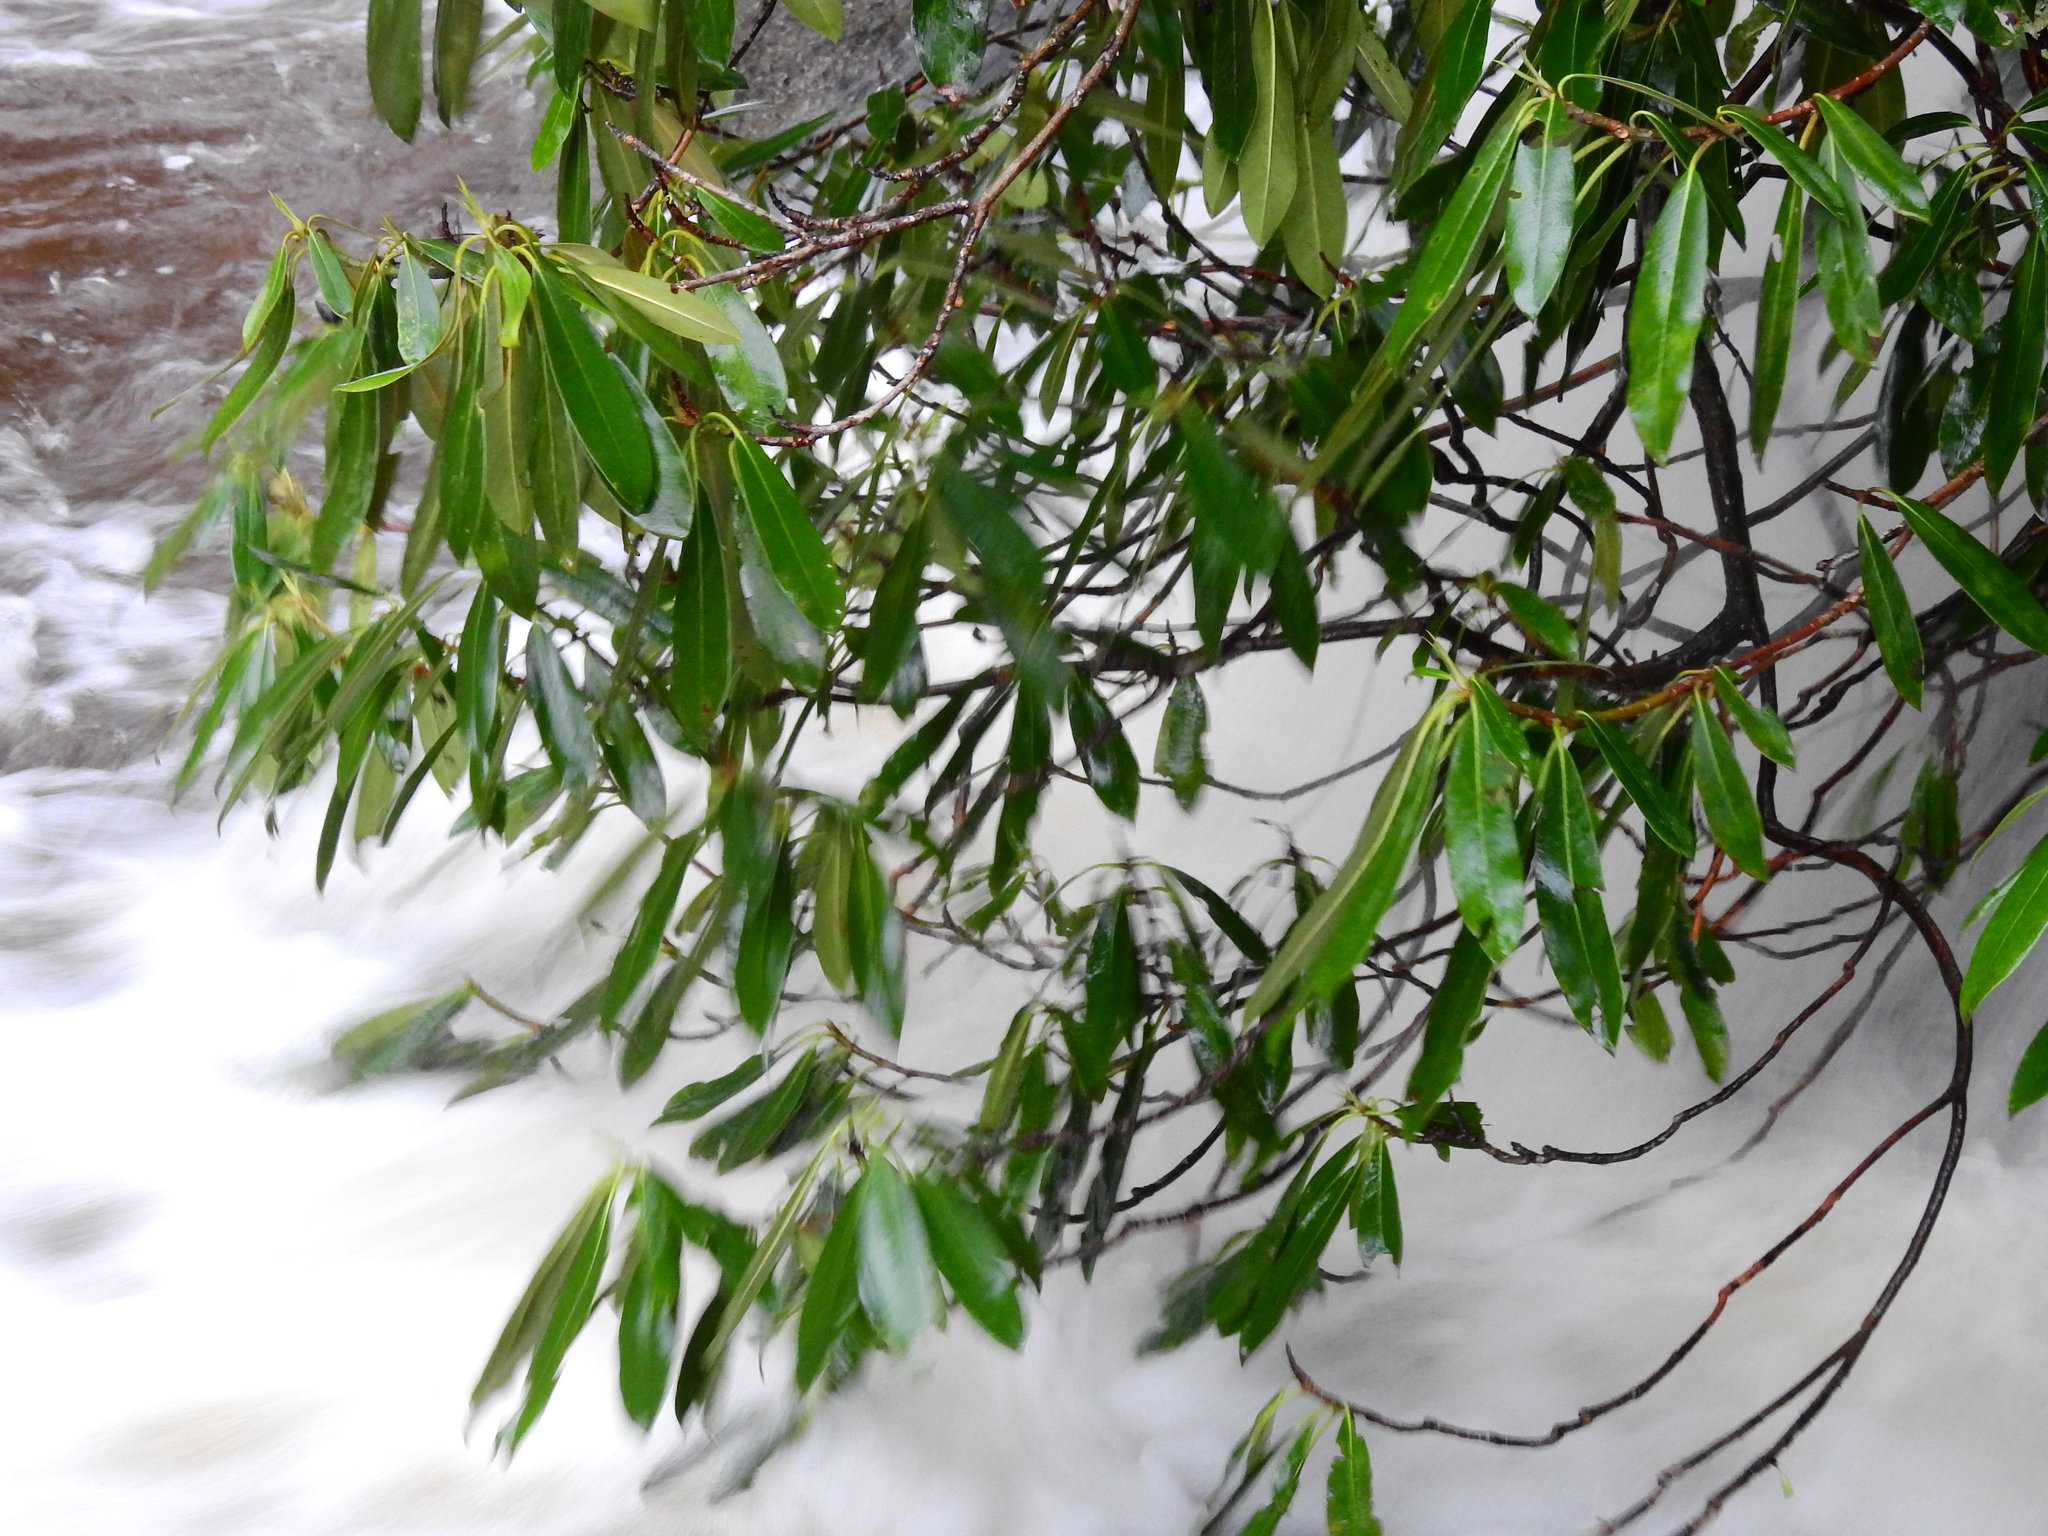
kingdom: Plantae
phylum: Tracheophyta
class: Magnoliopsida
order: Ericales
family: Ericaceae
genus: Rhododendron
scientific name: Rhododendron maximum
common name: Great rhododendron
